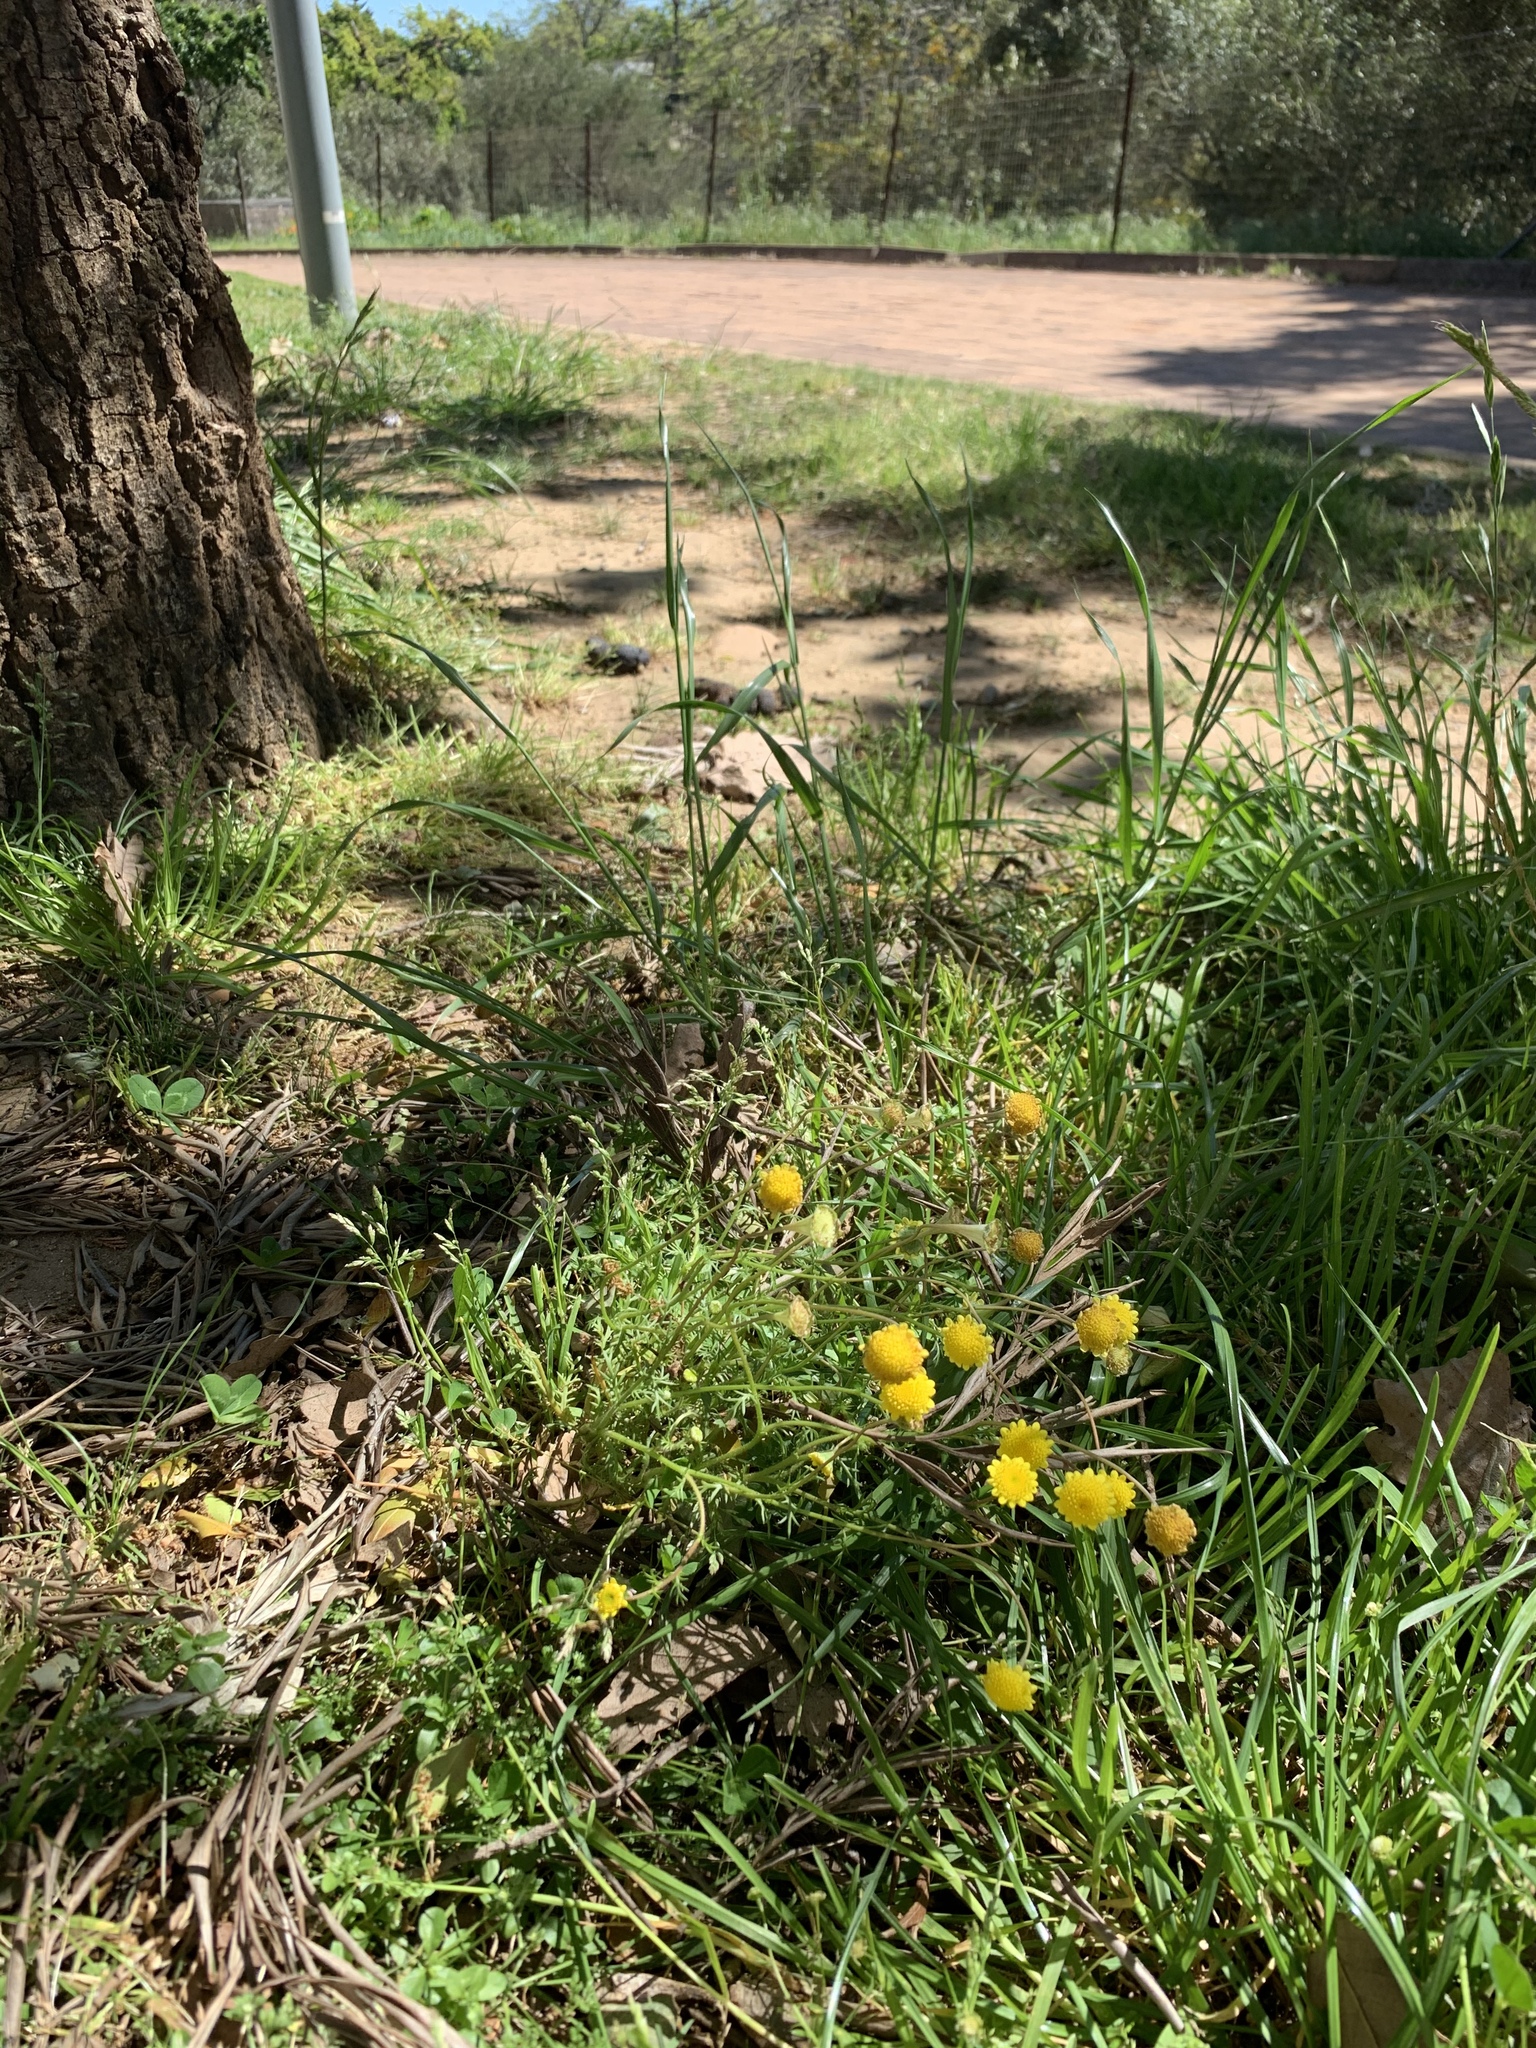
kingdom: Plantae
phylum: Tracheophyta
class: Magnoliopsida
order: Asterales
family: Asteraceae
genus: Cotula
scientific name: Cotula pruinosa
